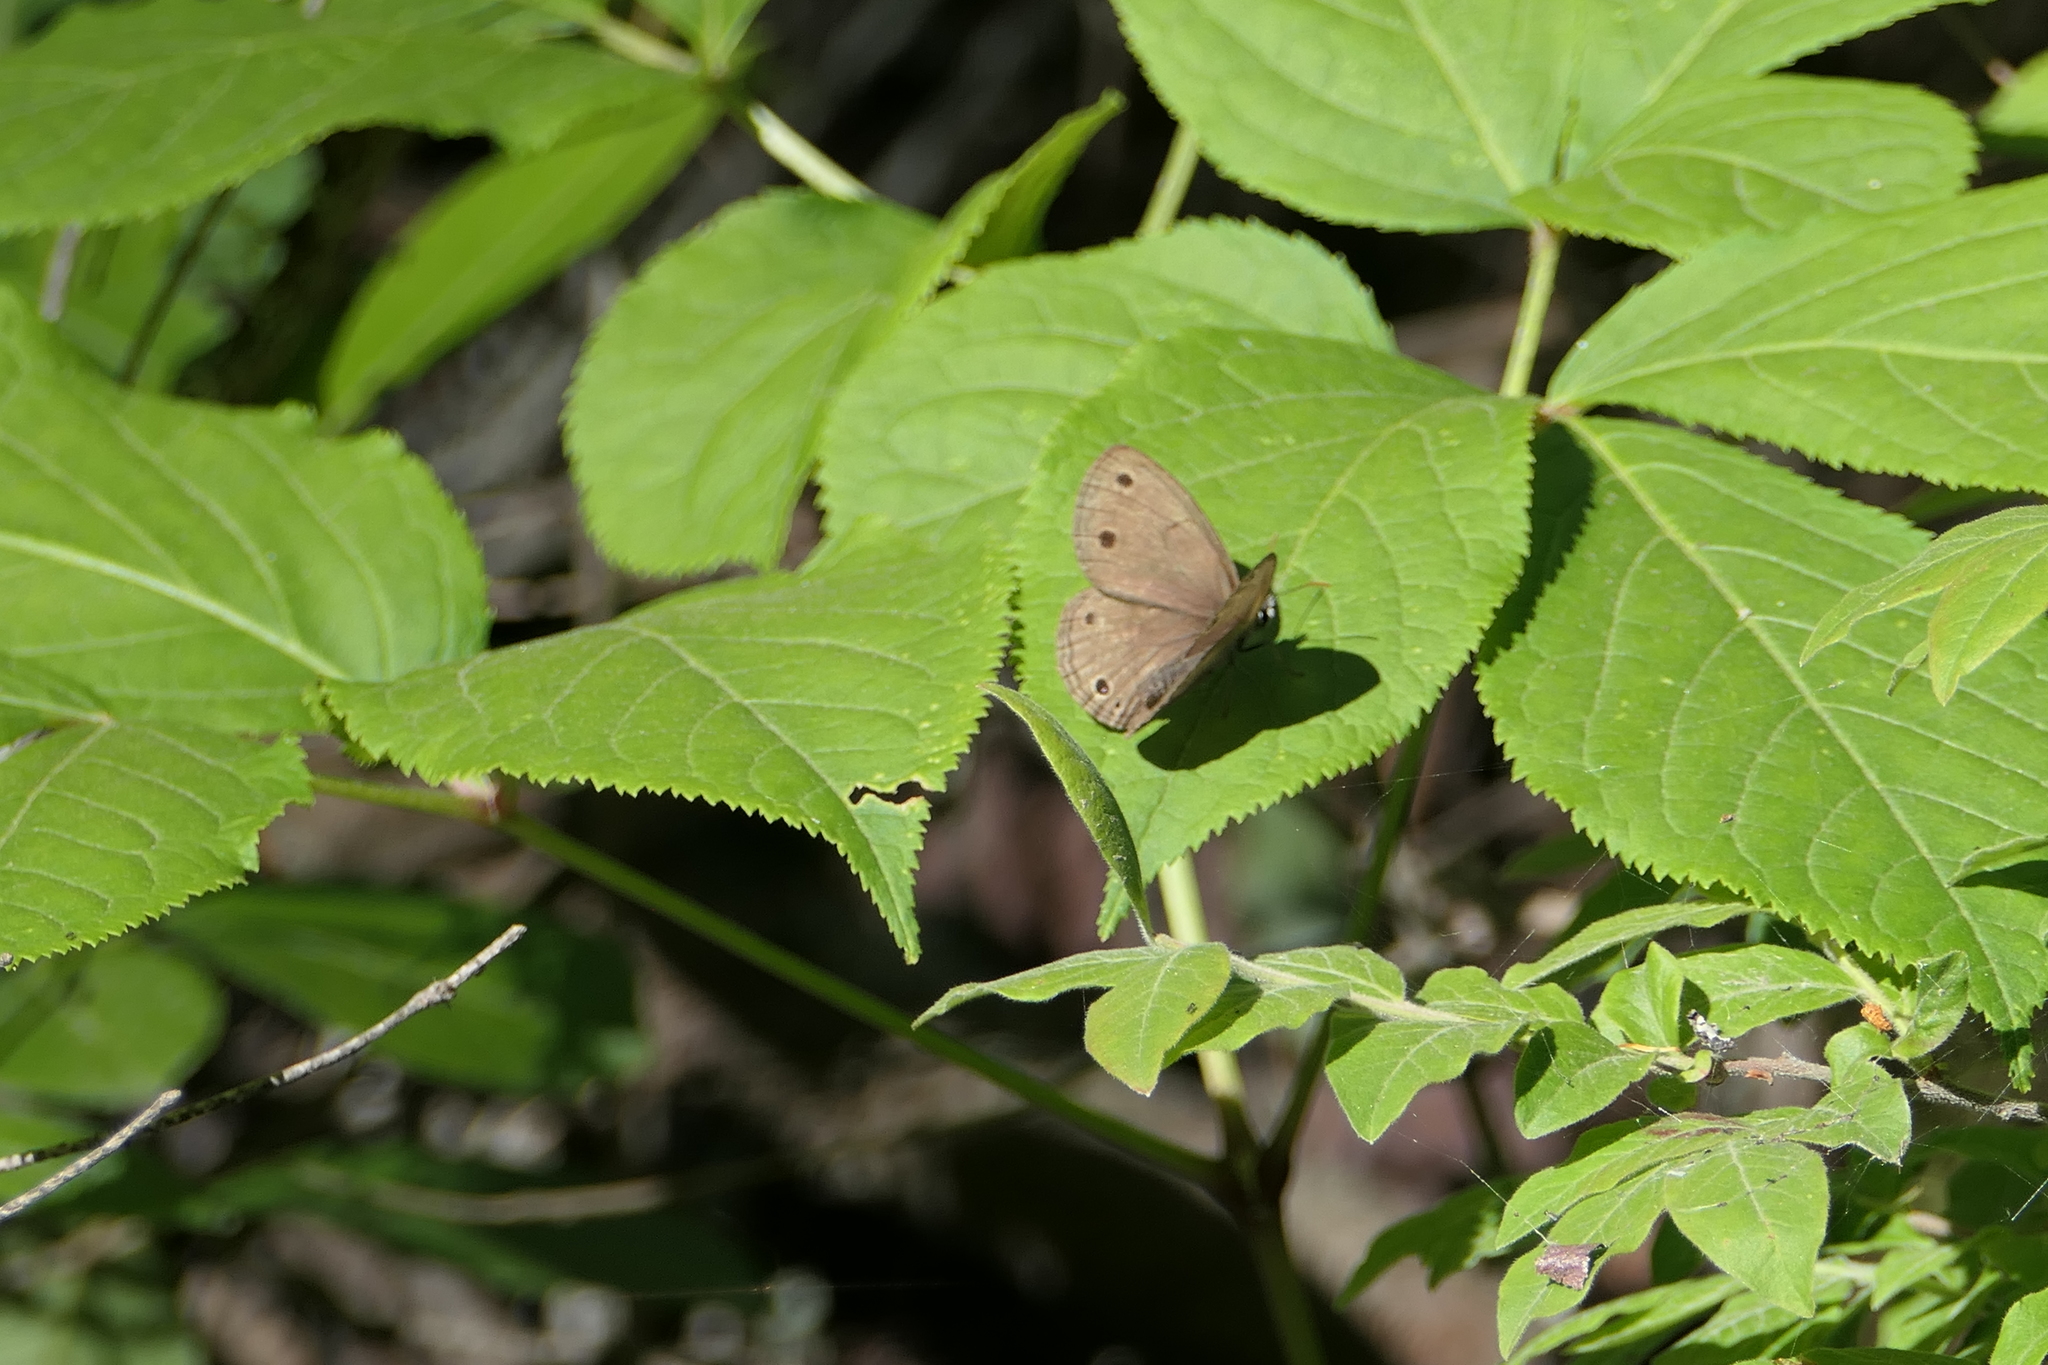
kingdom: Animalia
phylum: Arthropoda
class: Insecta
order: Lepidoptera
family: Nymphalidae
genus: Euptychia
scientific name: Euptychia cymela
